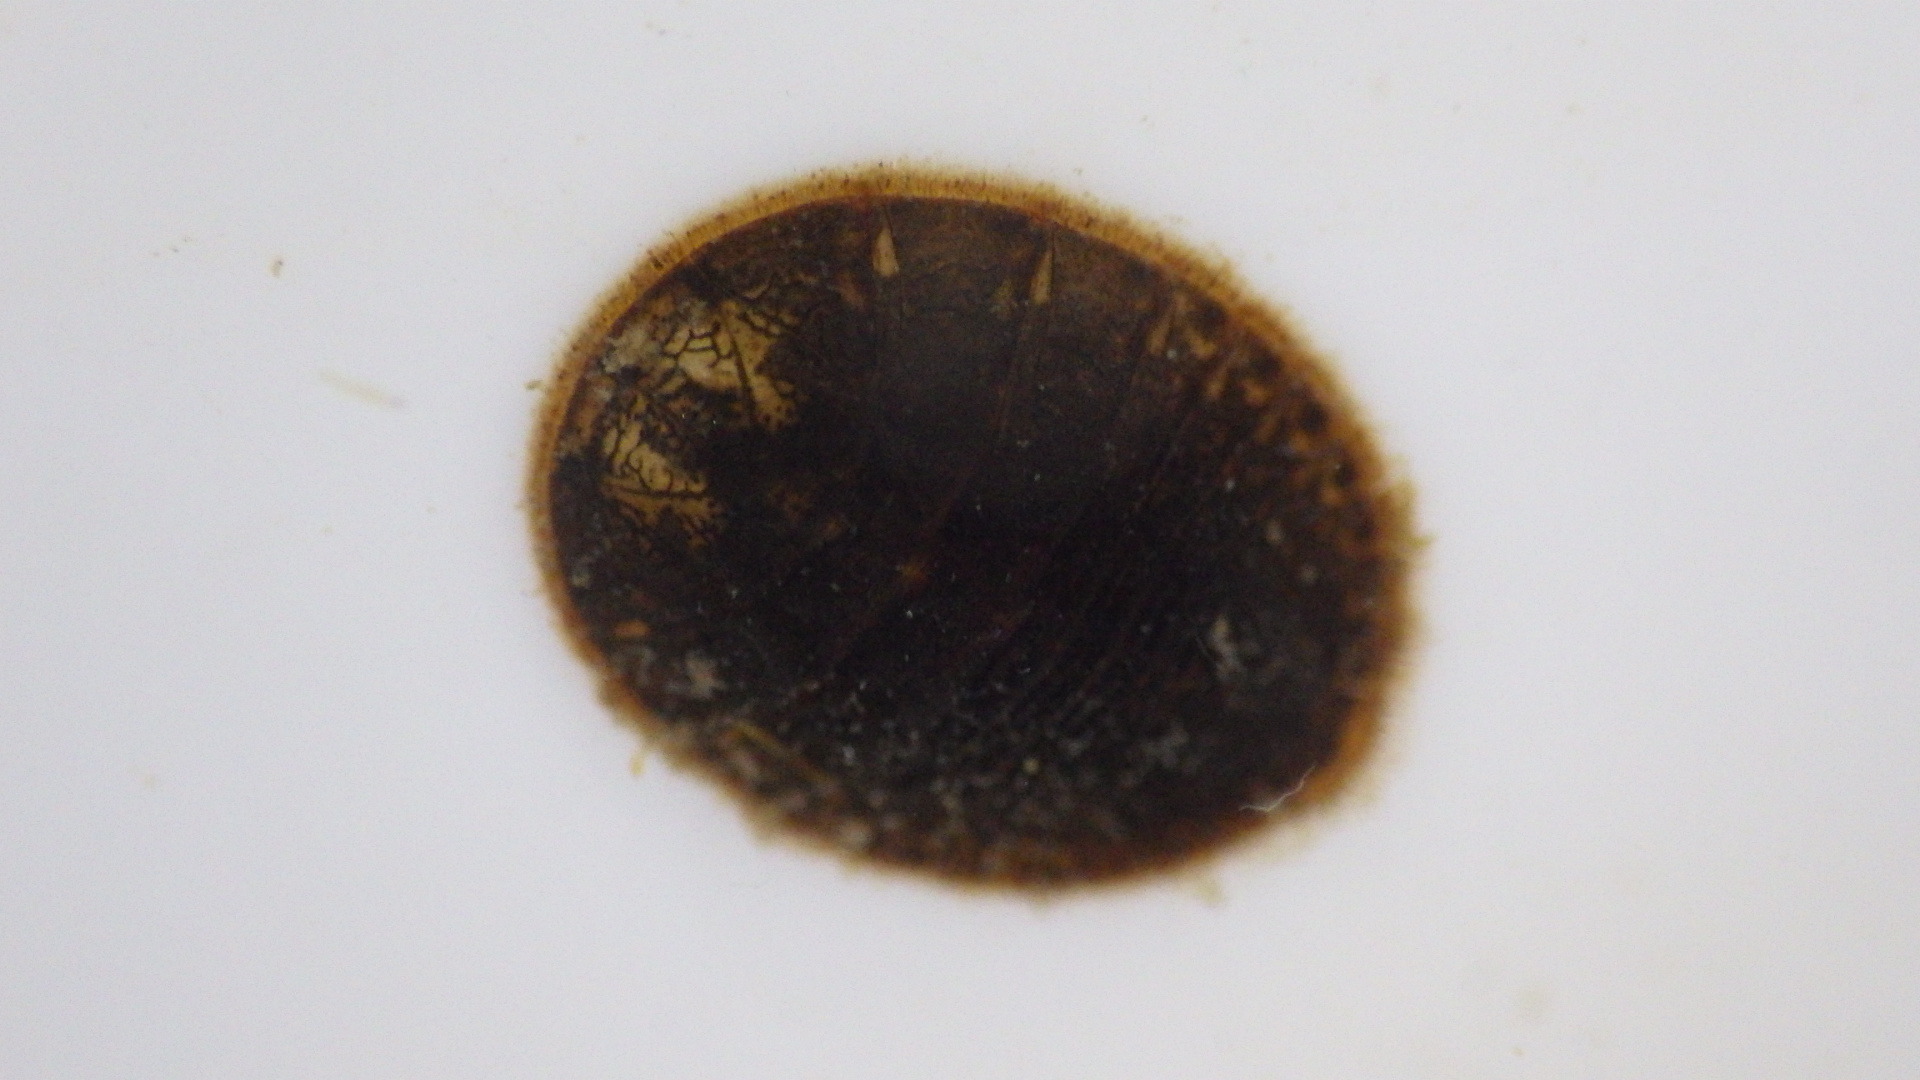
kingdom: Animalia
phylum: Arthropoda
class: Insecta
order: Coleoptera
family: Psephenidae
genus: Psephenus
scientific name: Psephenus herricki
